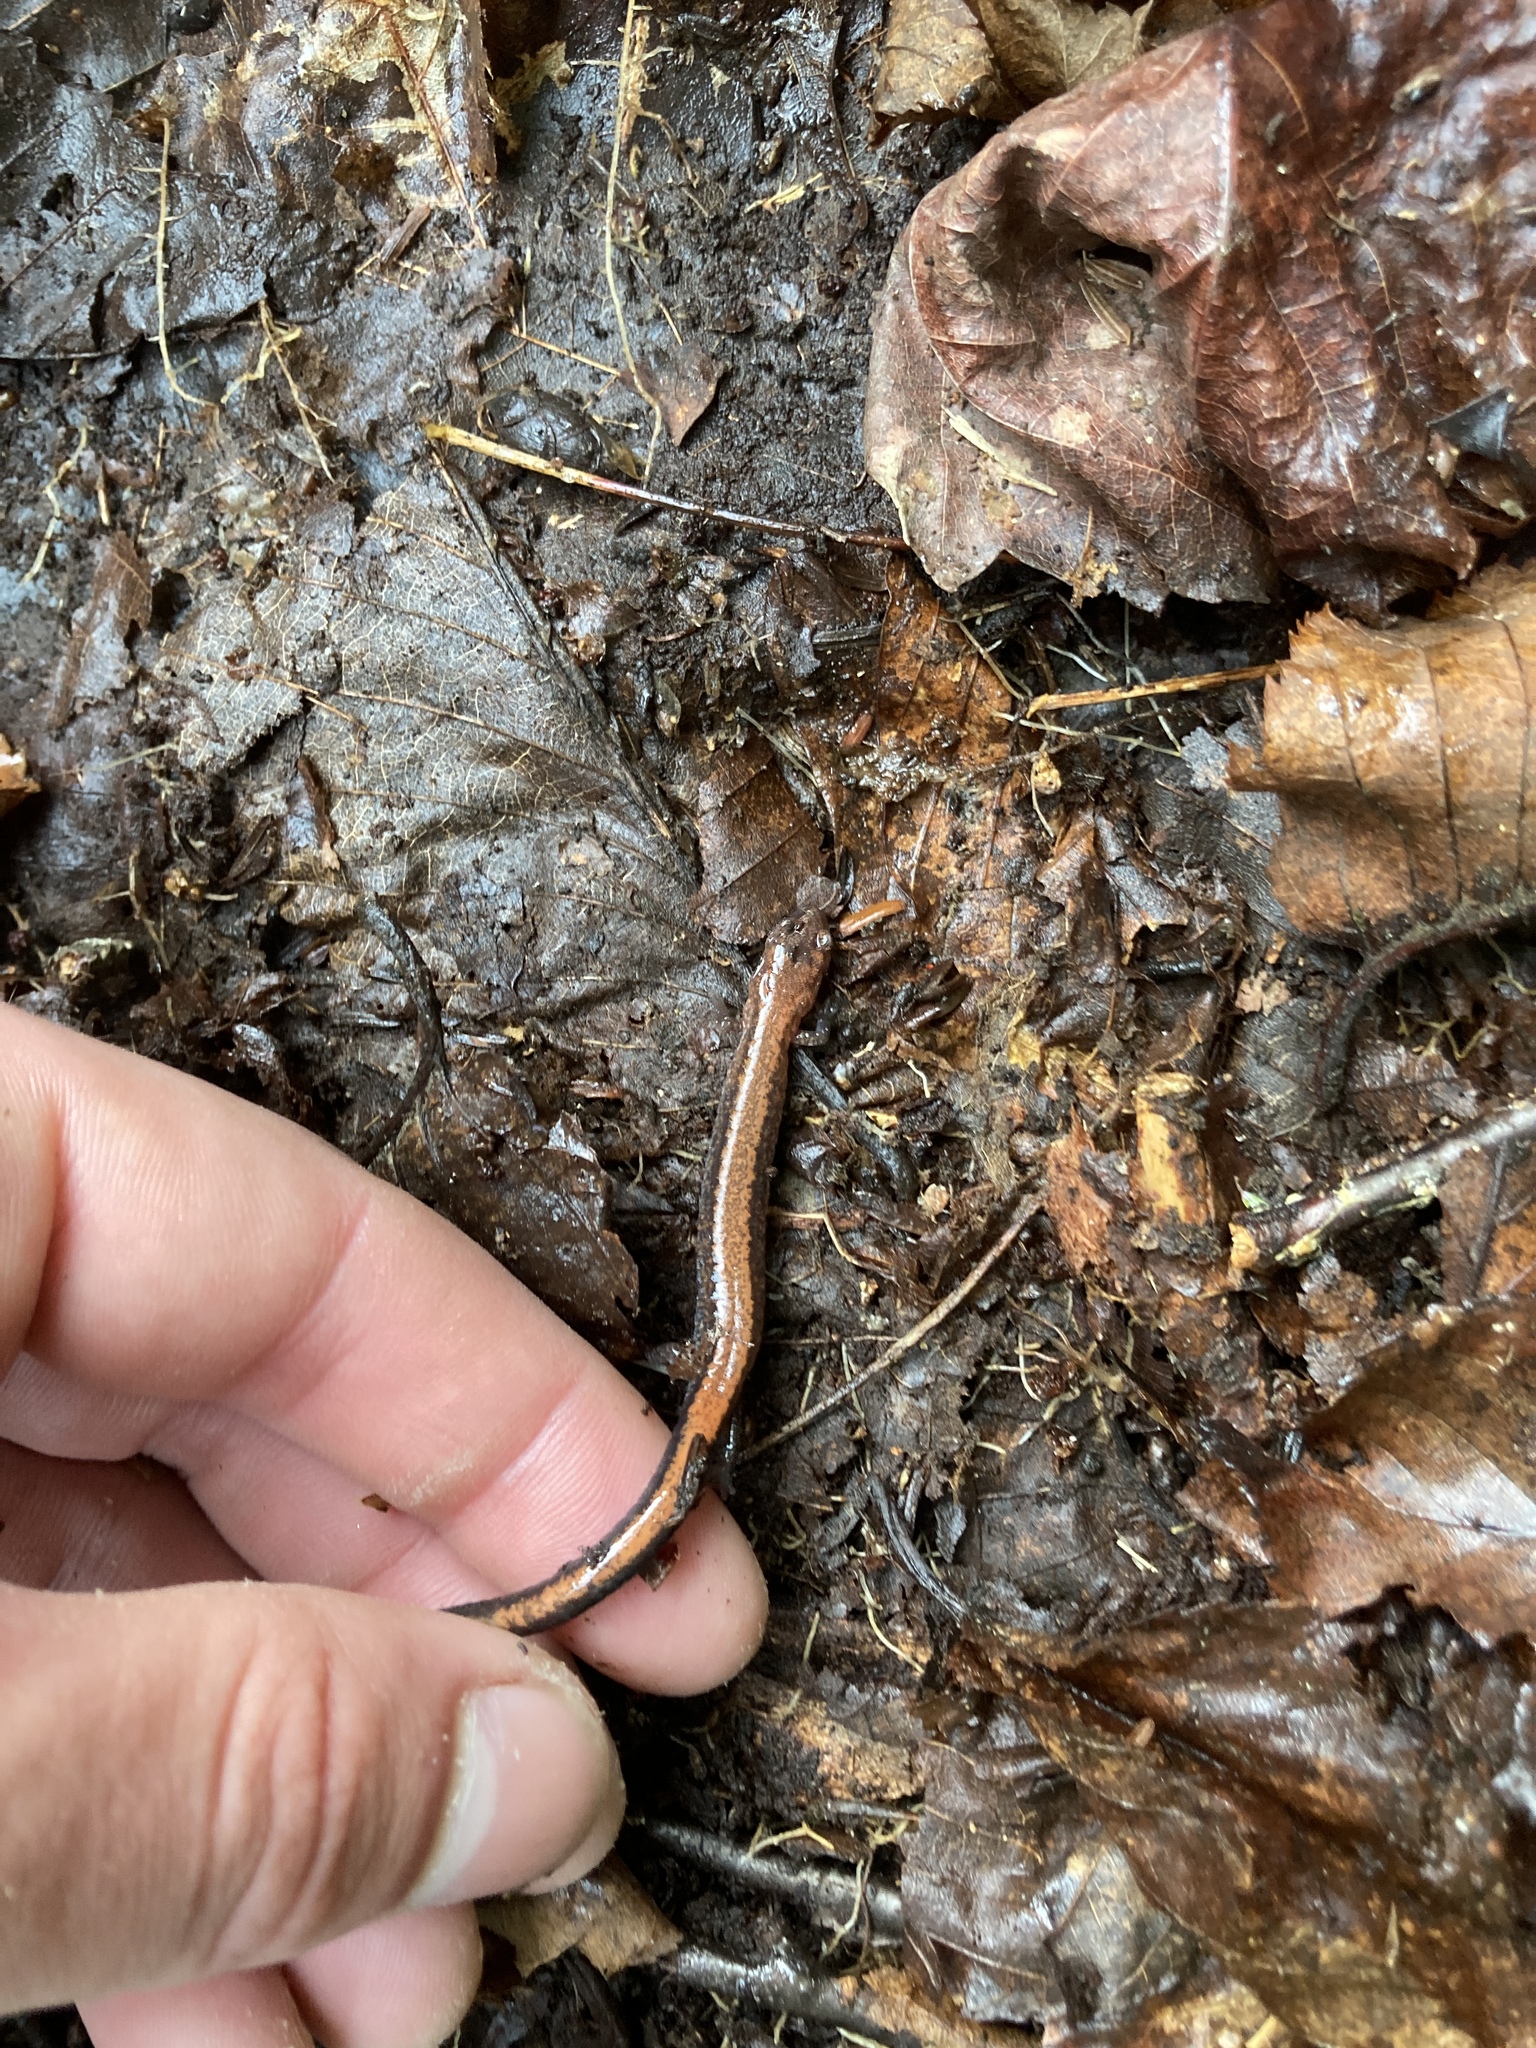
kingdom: Animalia
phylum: Chordata
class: Amphibia
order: Caudata
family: Plethodontidae
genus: Plethodon
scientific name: Plethodon cinereus
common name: Redback salamander
